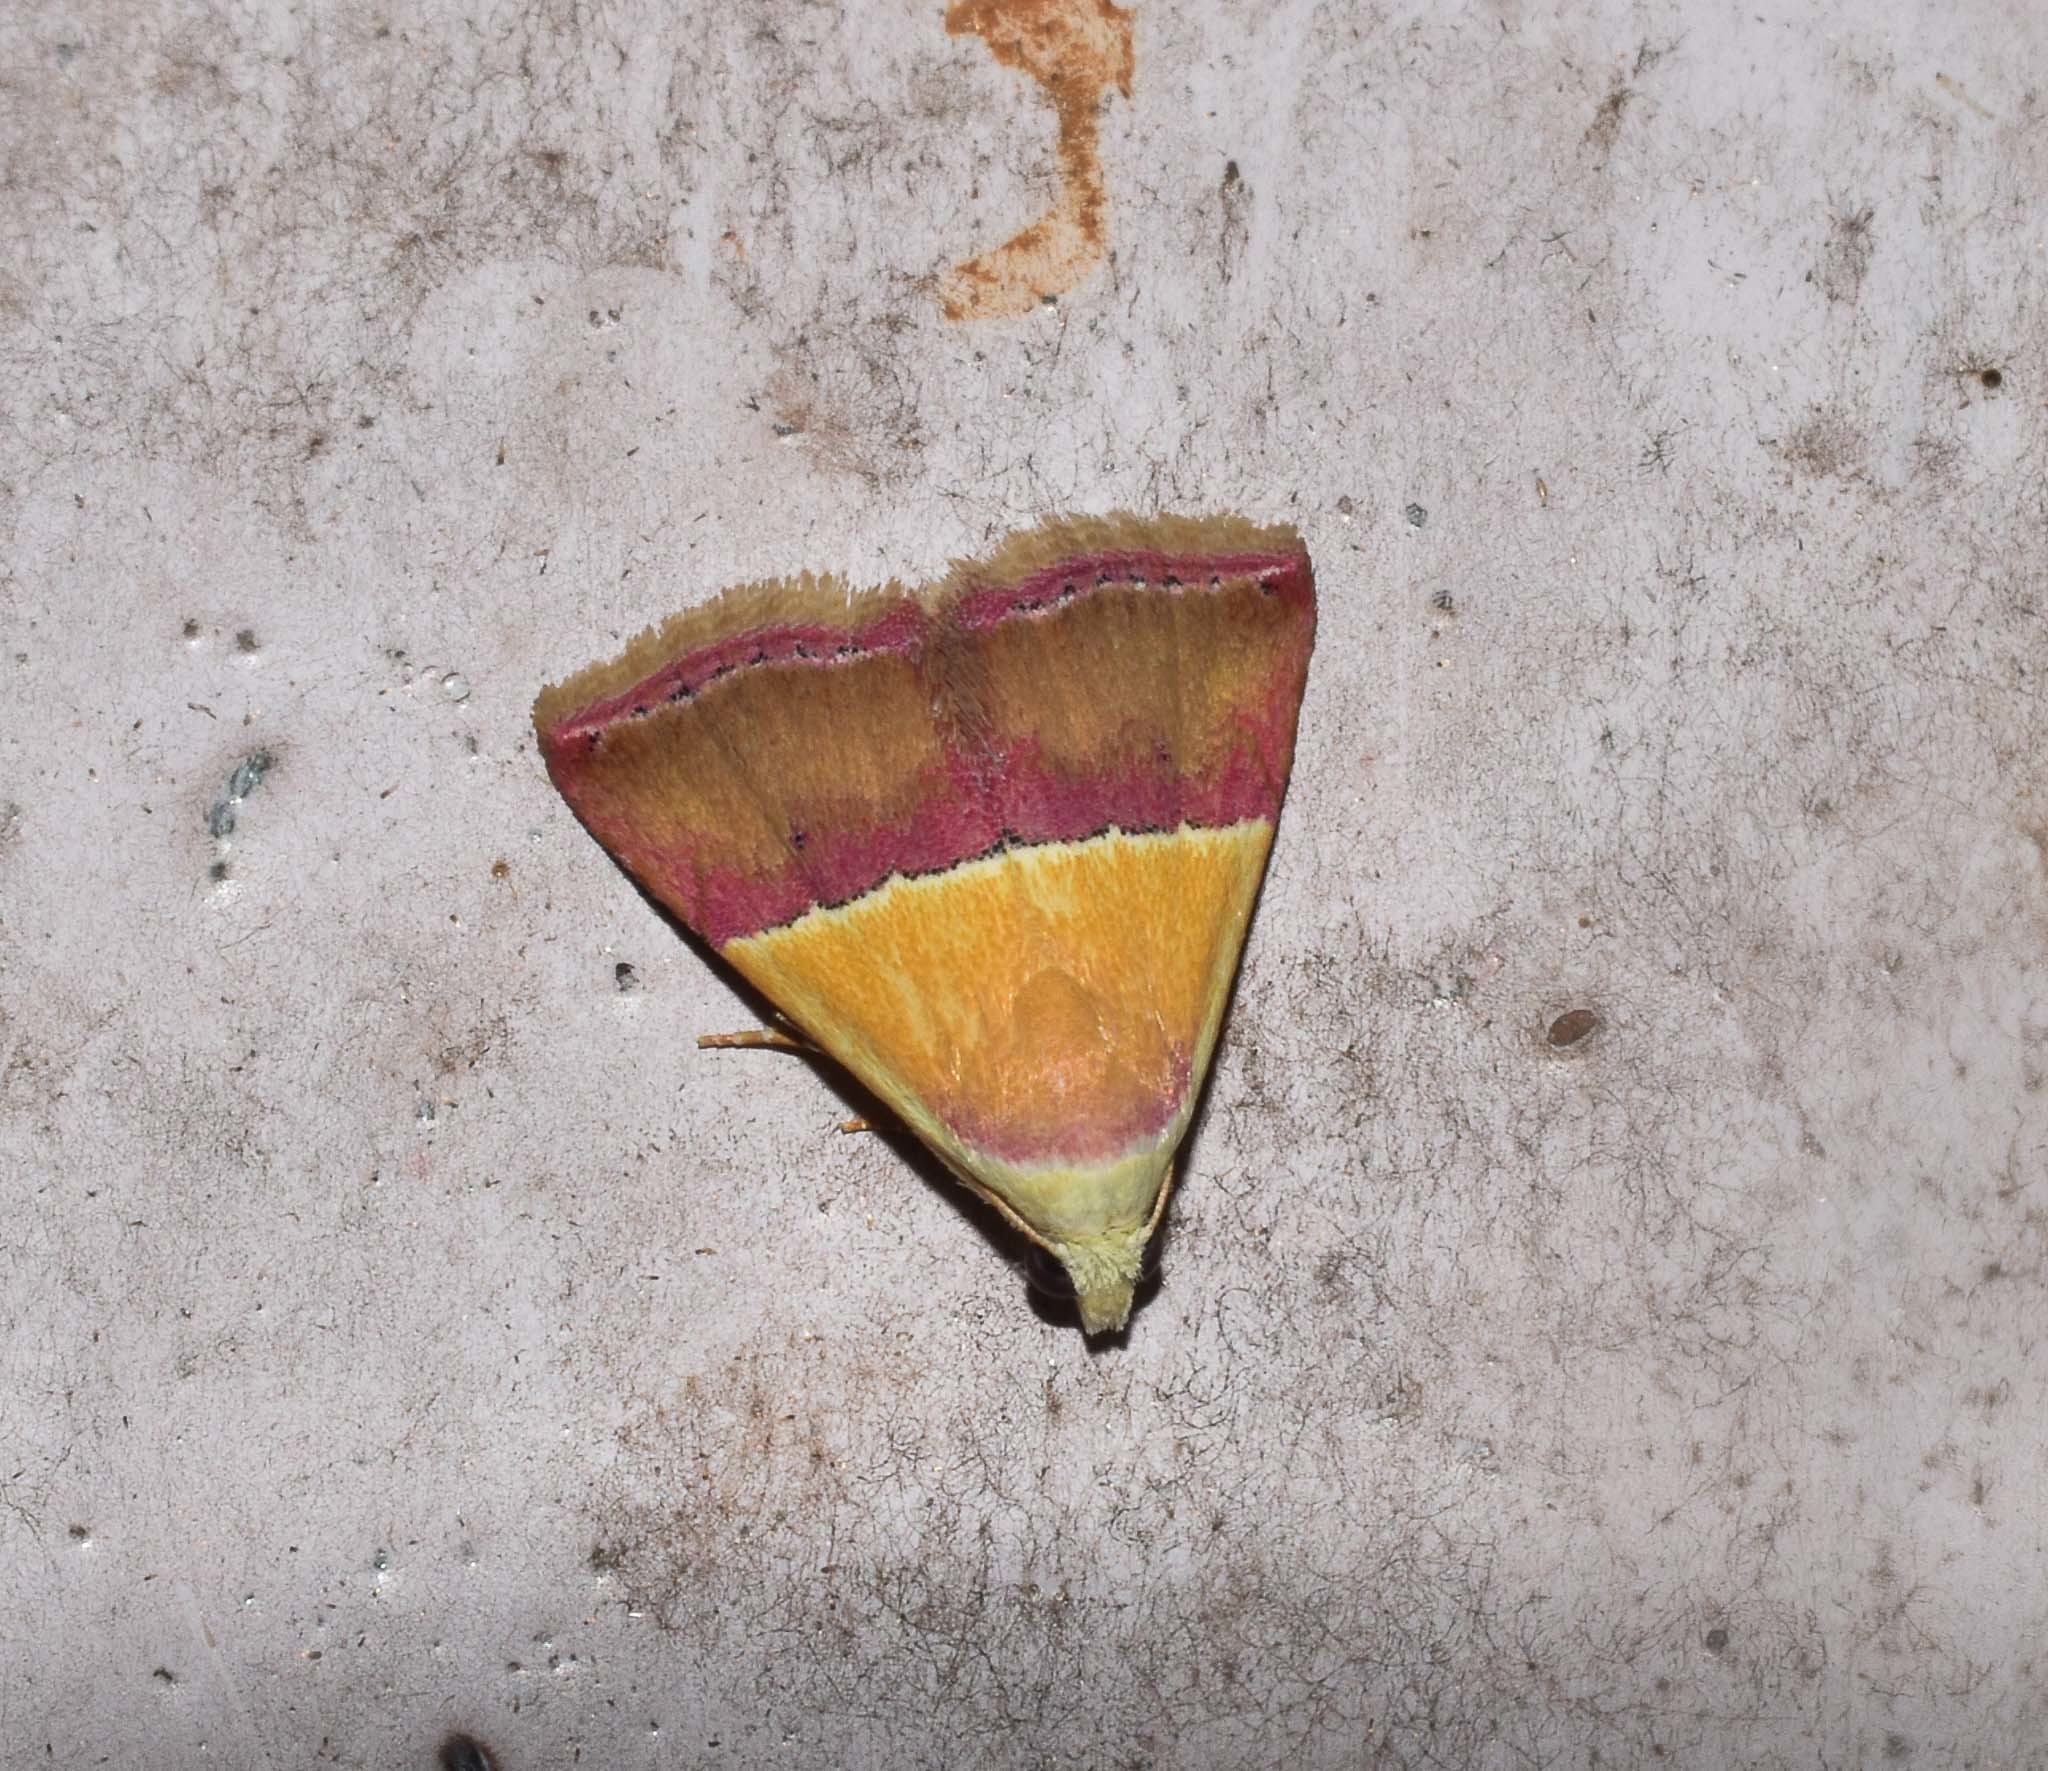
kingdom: Animalia
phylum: Arthropoda
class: Insecta
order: Lepidoptera
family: Noctuidae
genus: Eublemma
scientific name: Eublemma accedens
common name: Moth
